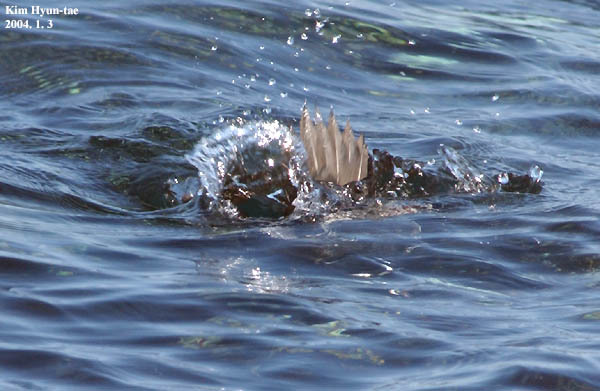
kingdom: Animalia
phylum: Chordata
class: Aves
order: Anseriformes
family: Anatidae
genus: Histrionicus
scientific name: Histrionicus histrionicus
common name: Harlequin duck
